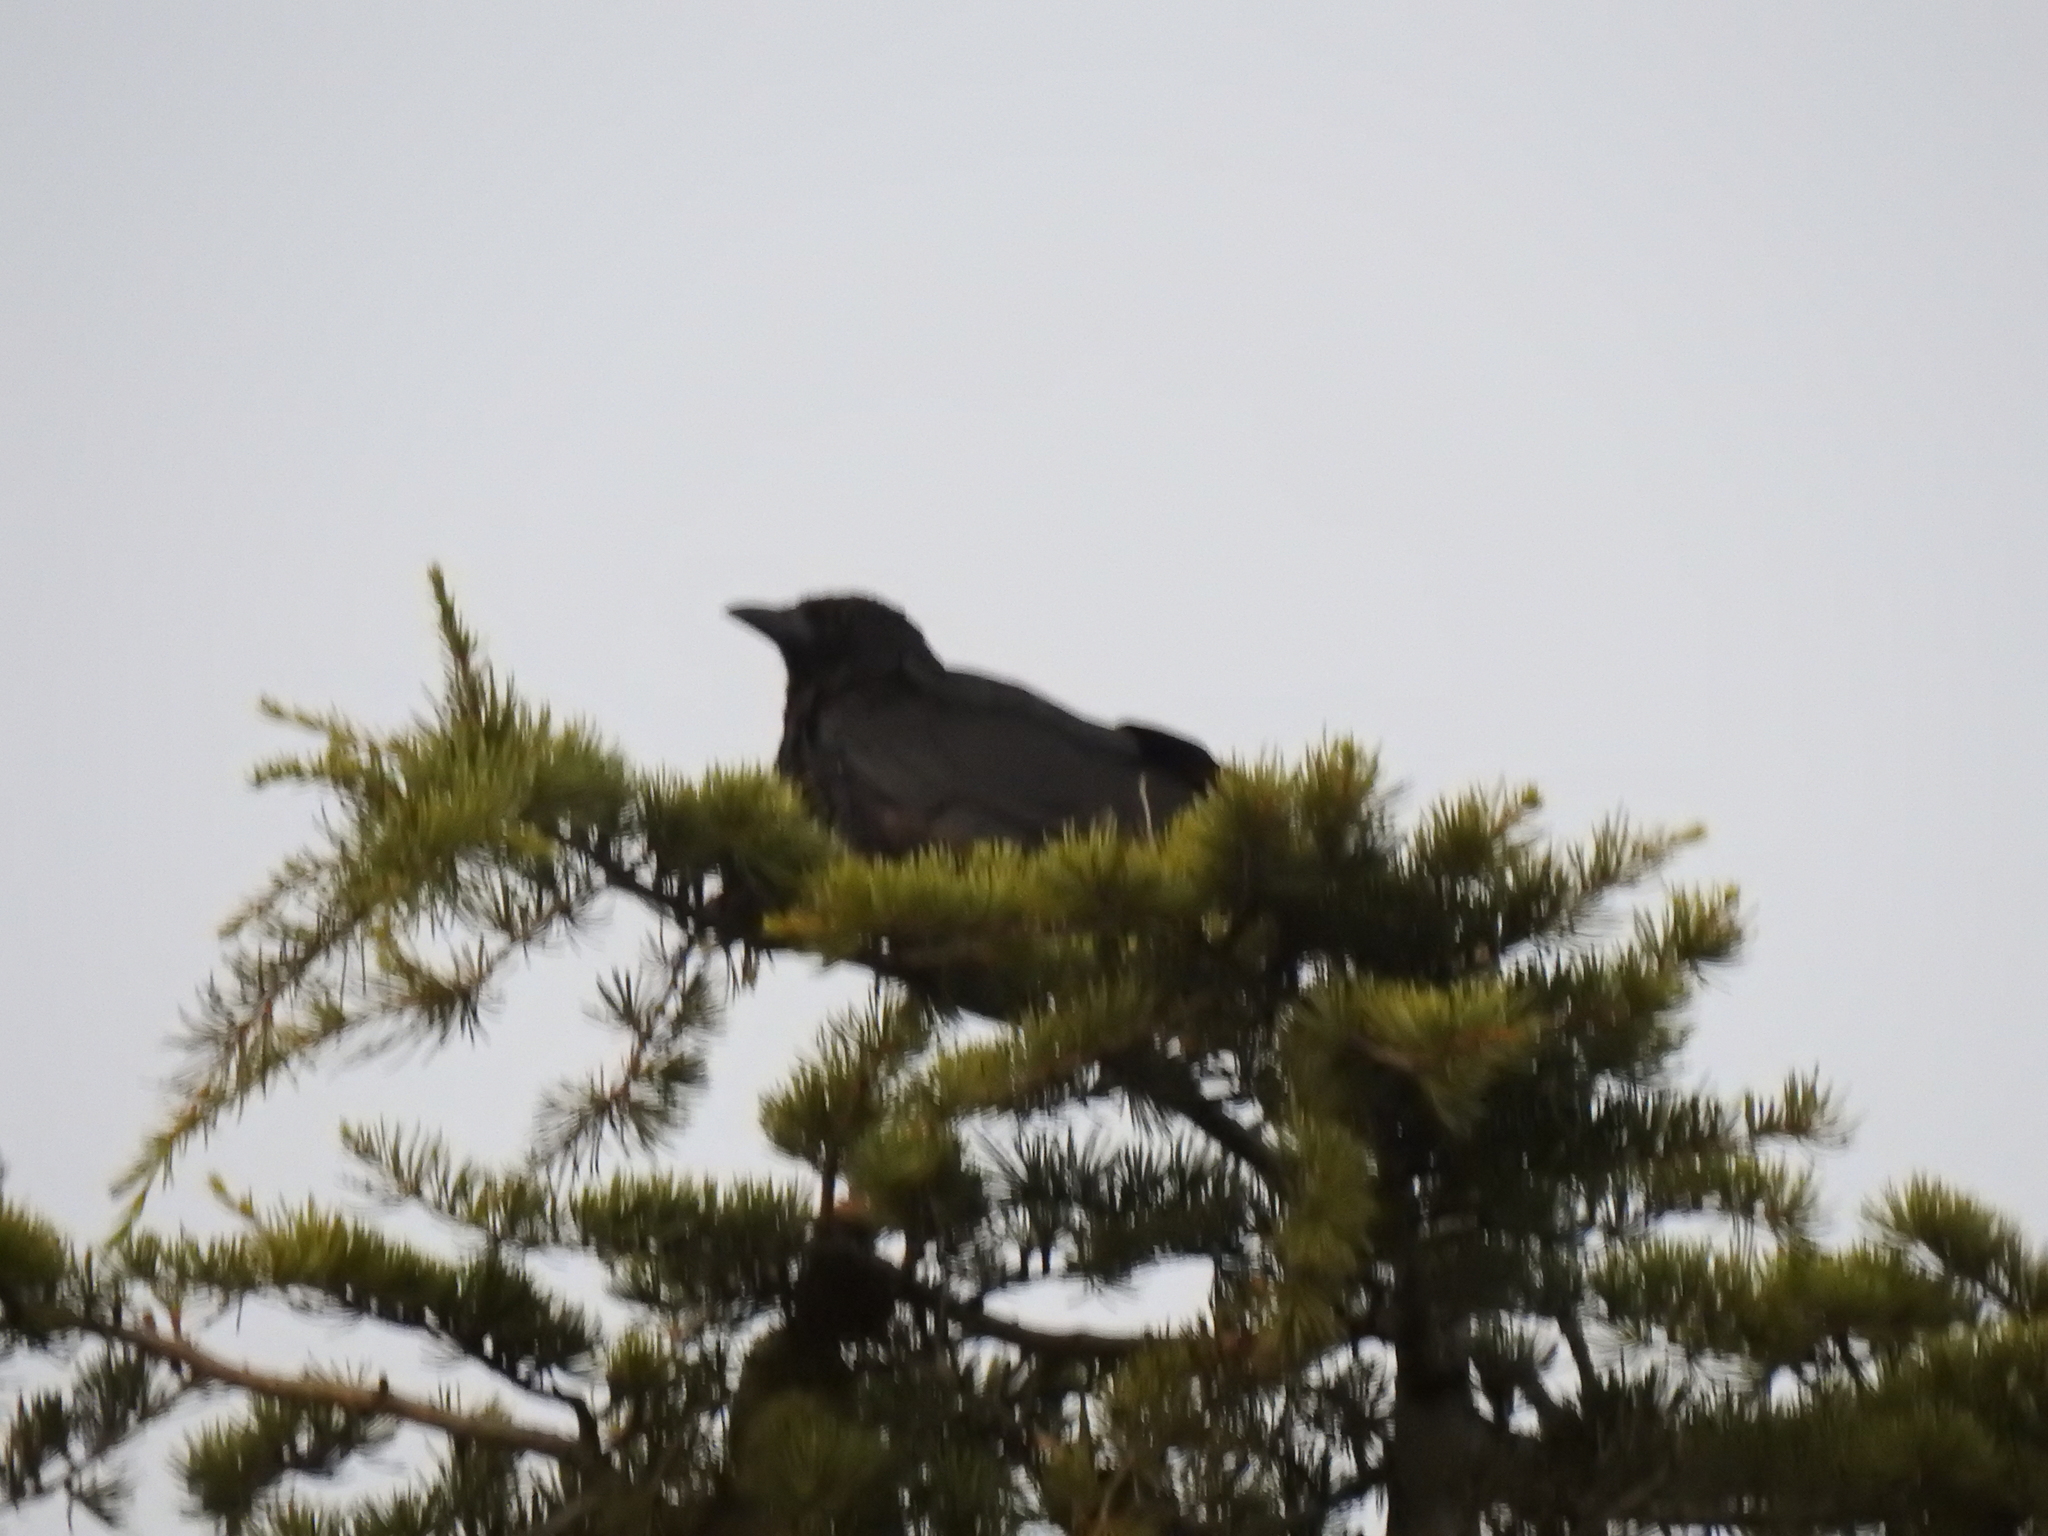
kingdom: Animalia
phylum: Chordata
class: Aves
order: Passeriformes
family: Corvidae
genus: Corvus
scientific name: Corvus brachyrhynchos
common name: American crow
